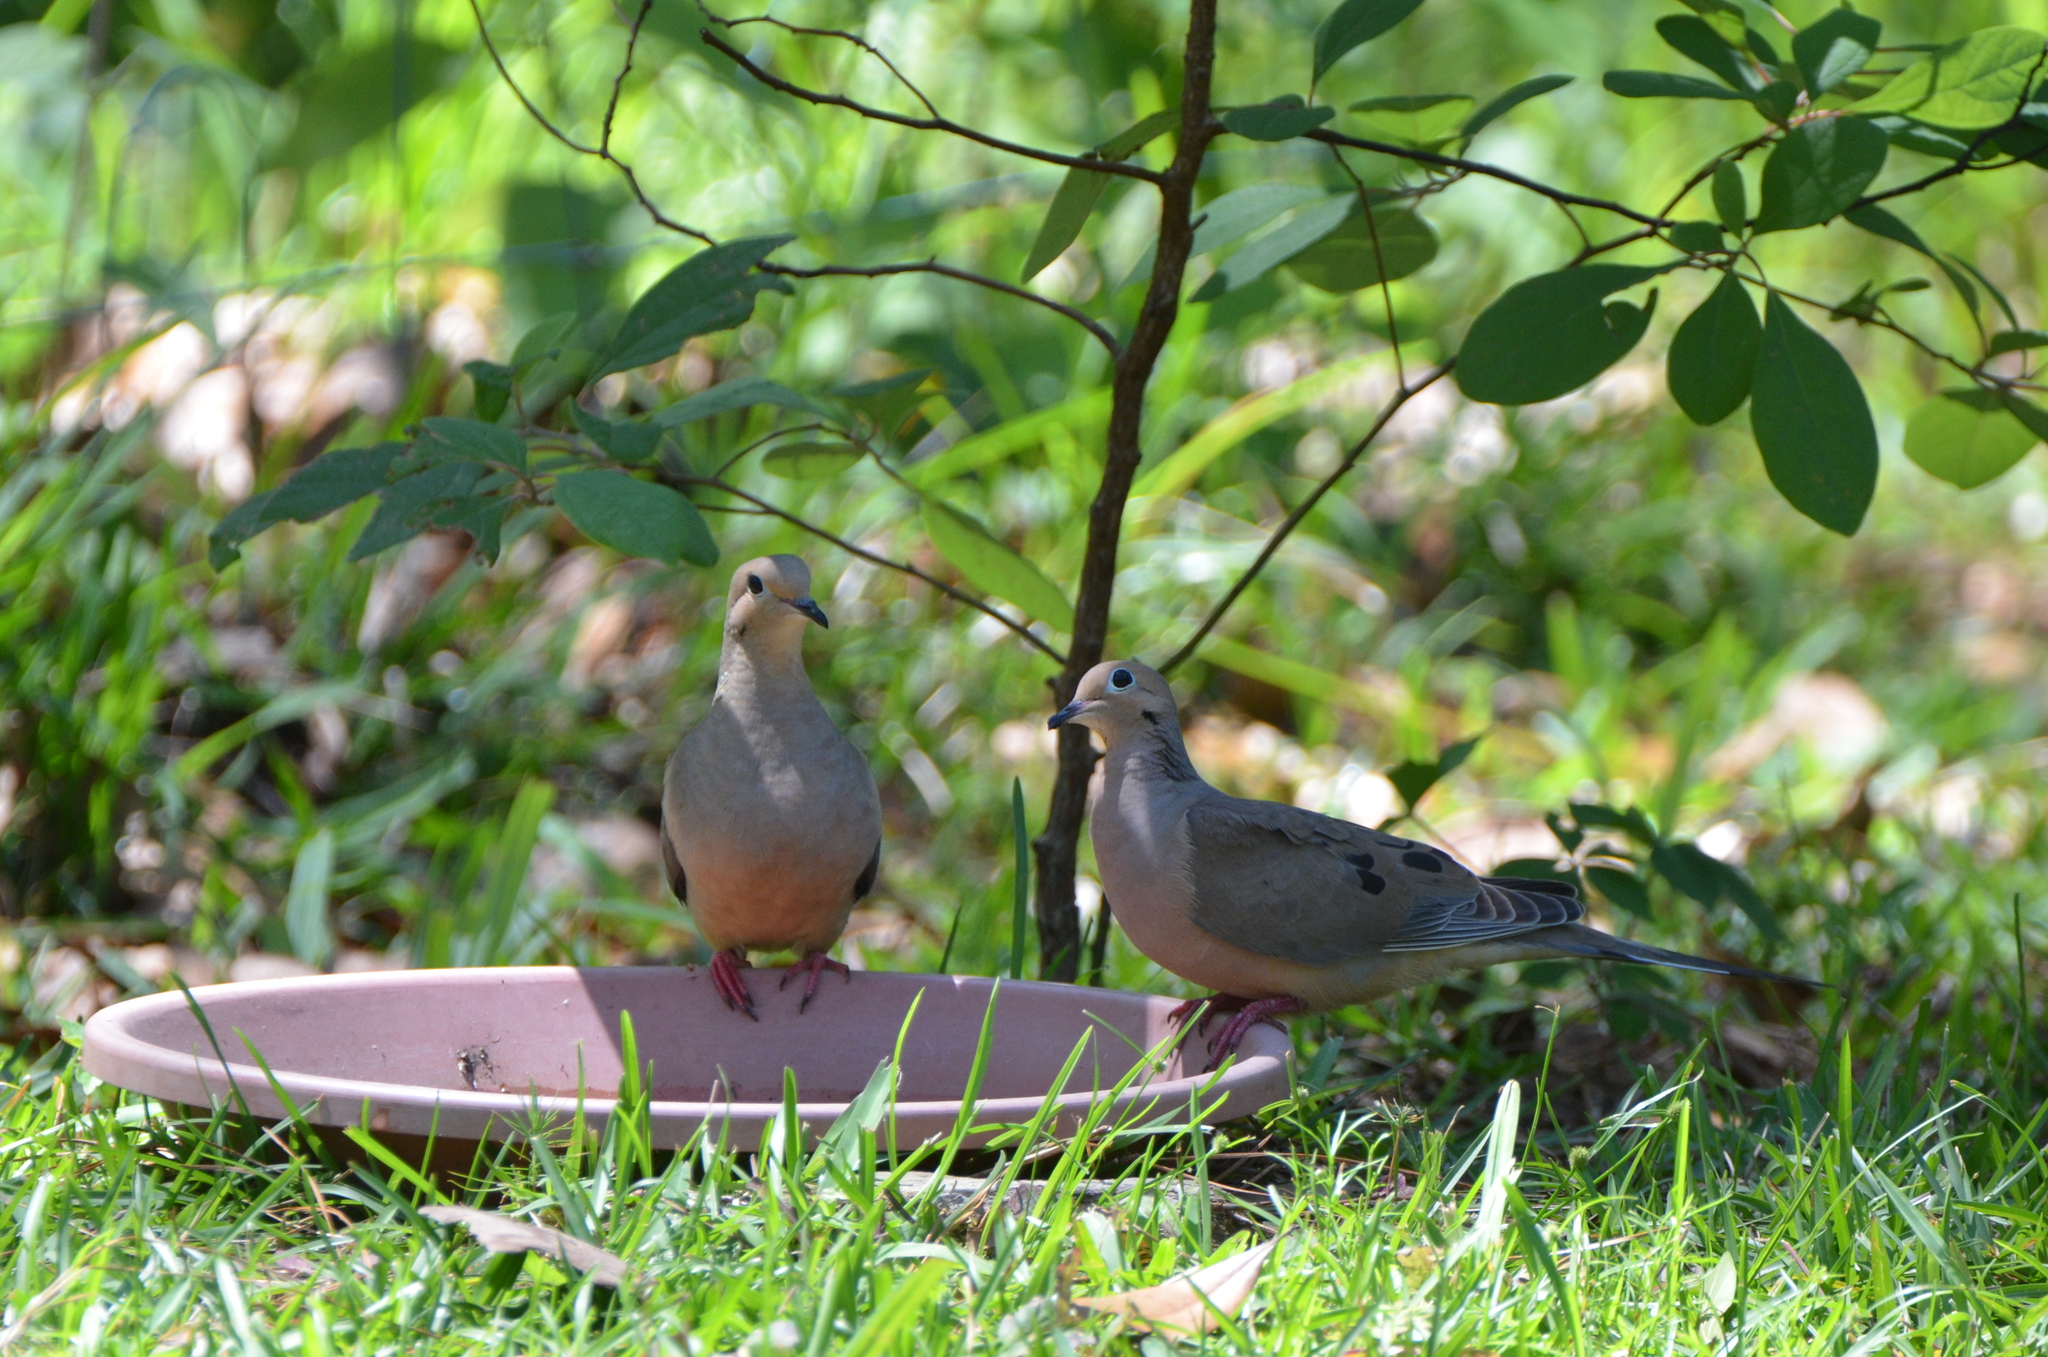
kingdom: Animalia
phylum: Chordata
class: Aves
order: Columbiformes
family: Columbidae
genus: Zenaida
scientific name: Zenaida macroura
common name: Mourning dove
